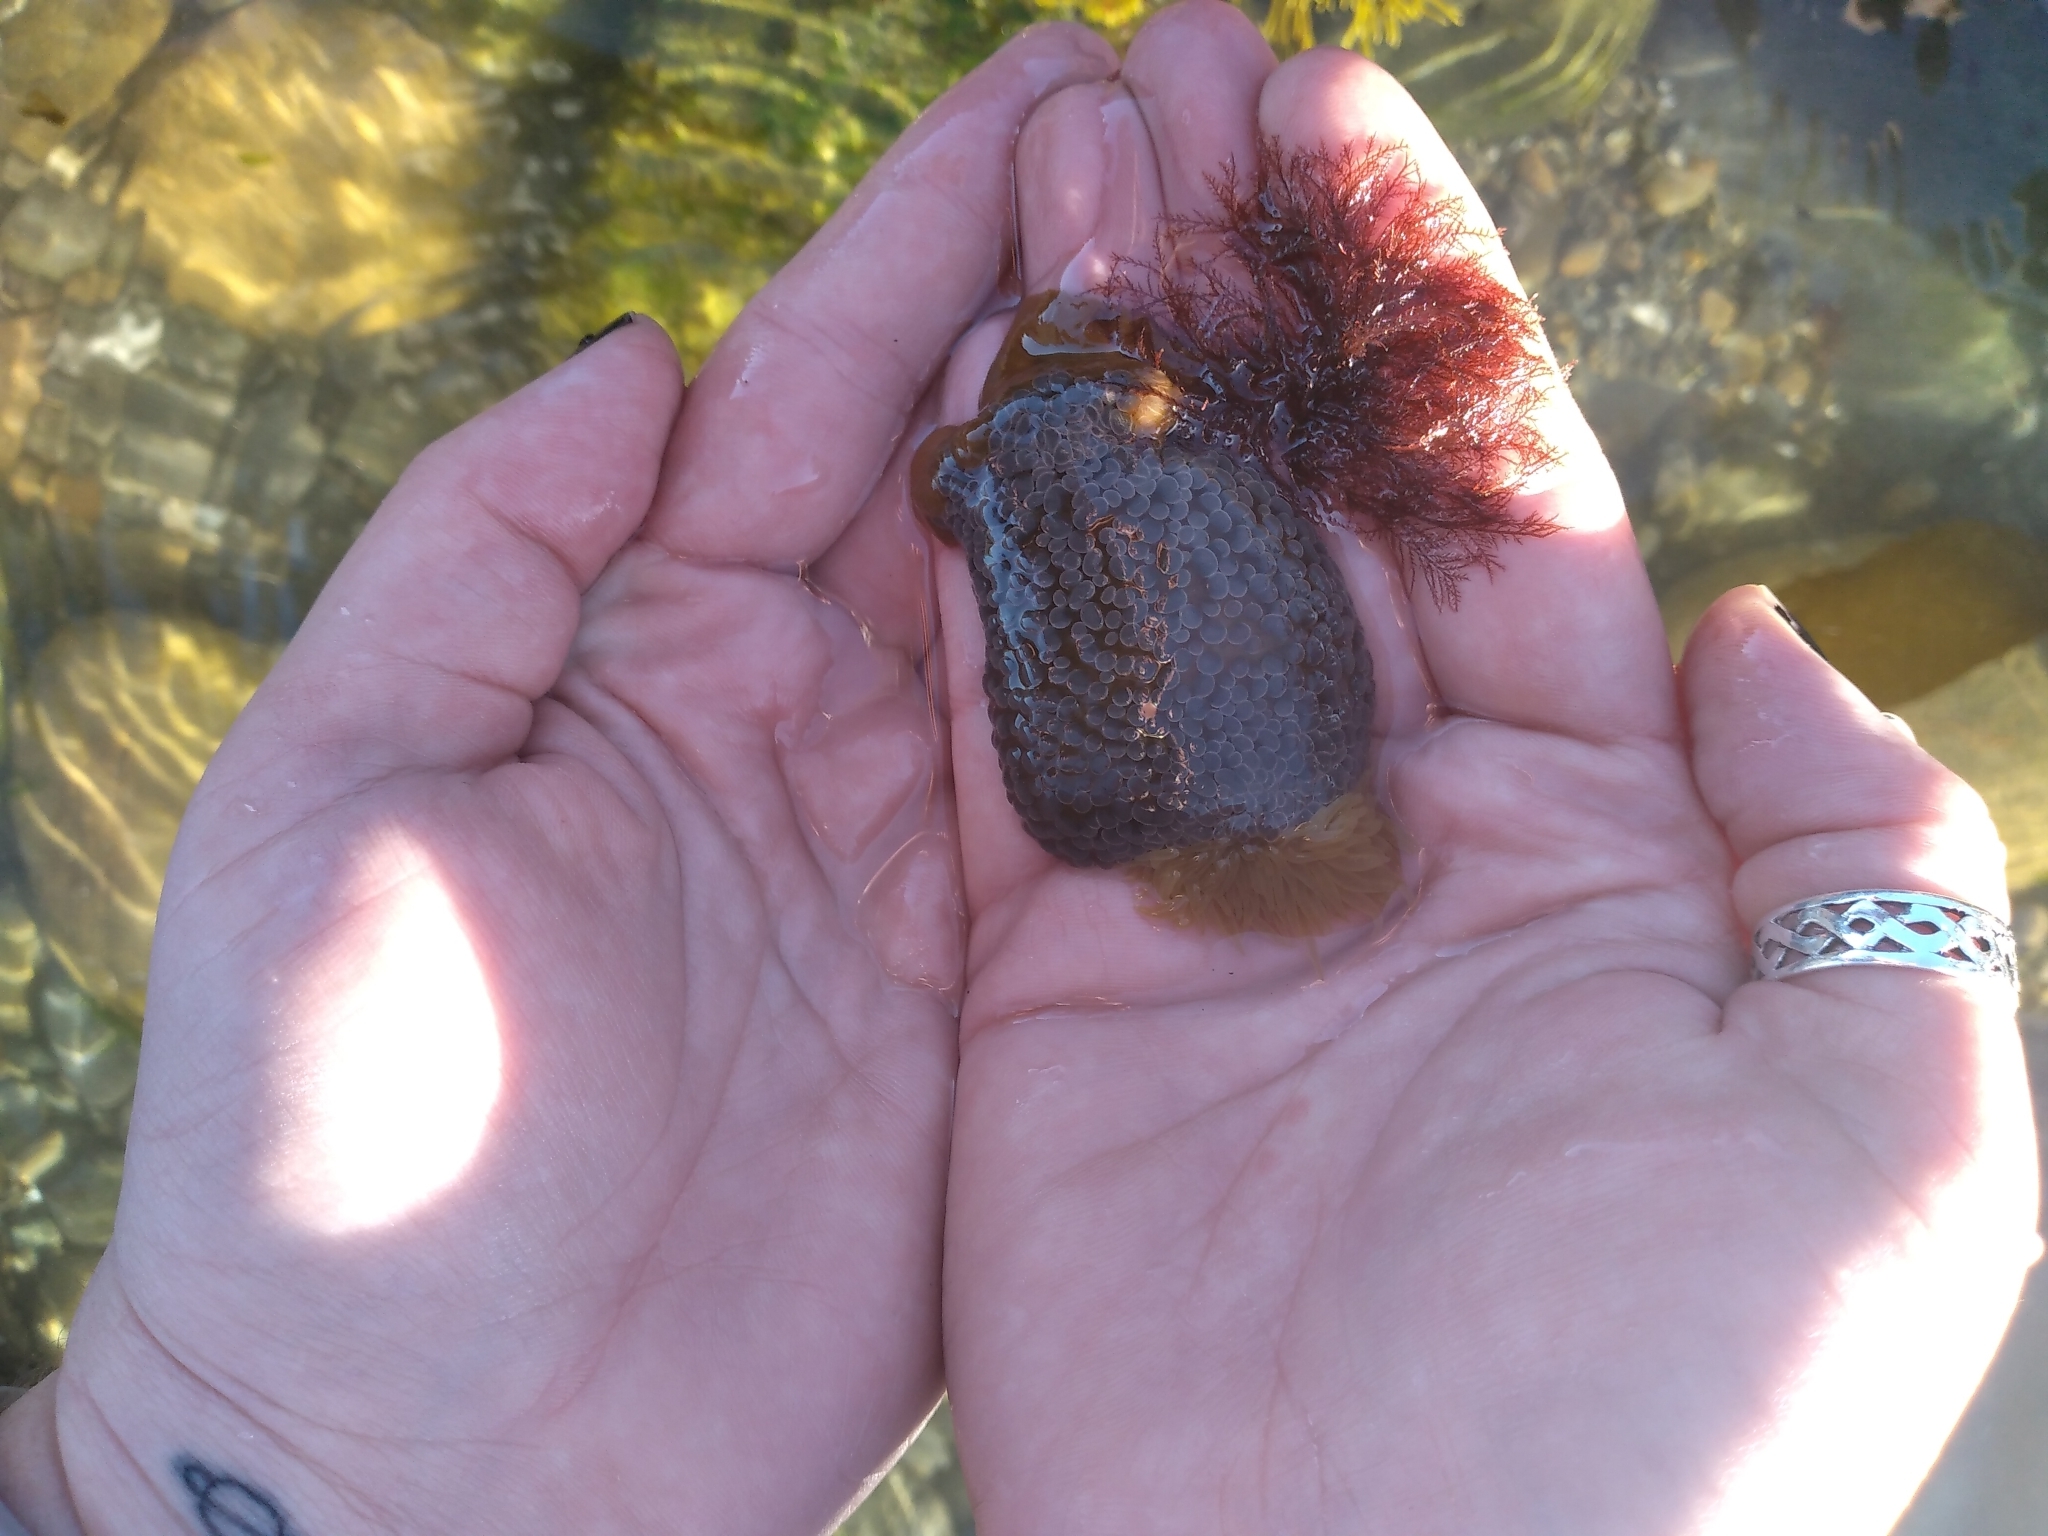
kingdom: Animalia
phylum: Cnidaria
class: Anthozoa
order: Actiniaria
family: Actiniidae
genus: Phlyctenactis
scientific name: Phlyctenactis tuberculosa
